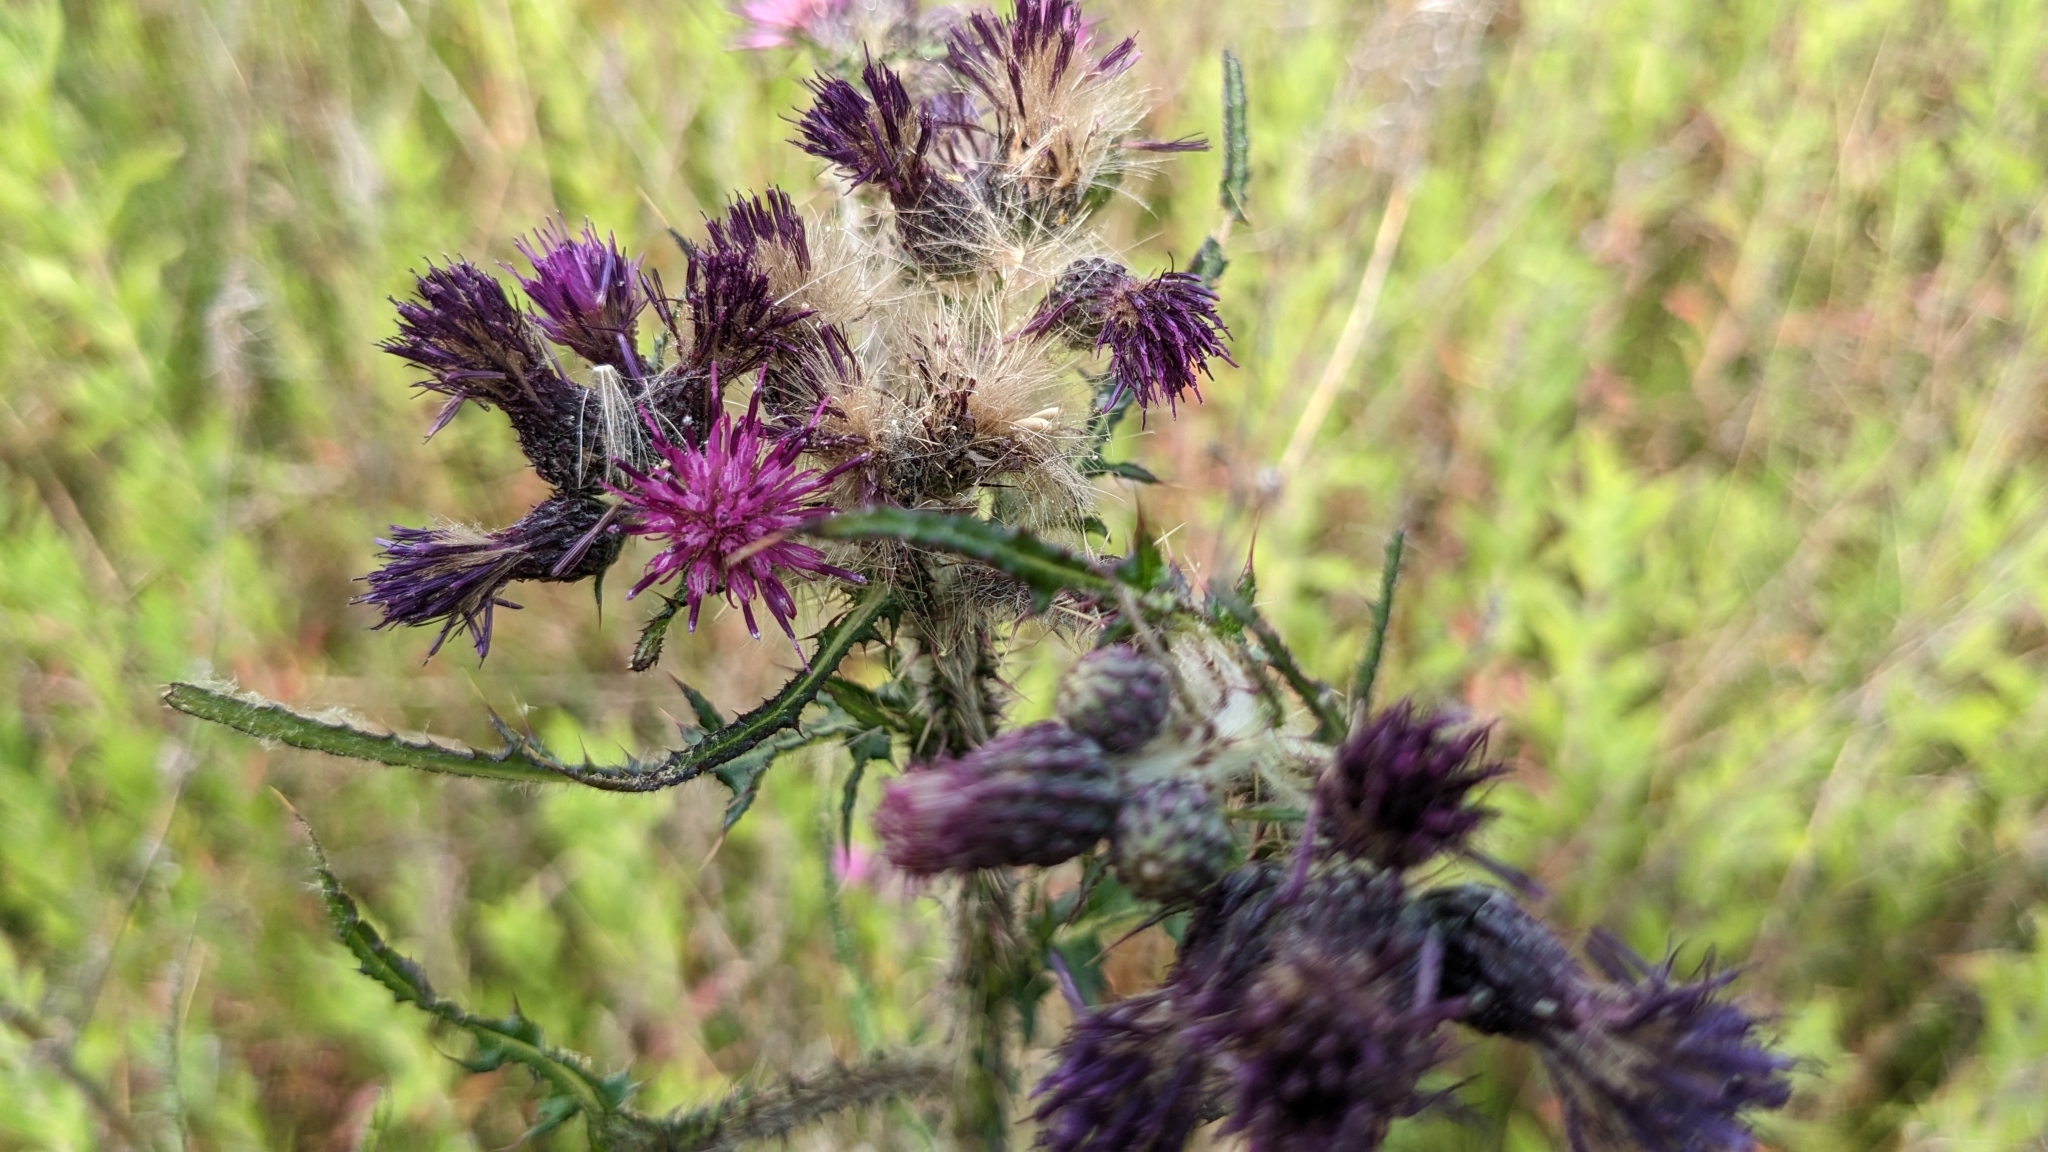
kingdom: Plantae
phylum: Tracheophyta
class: Magnoliopsida
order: Asterales
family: Asteraceae
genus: Cirsium
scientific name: Cirsium palustre
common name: Marsh thistle
